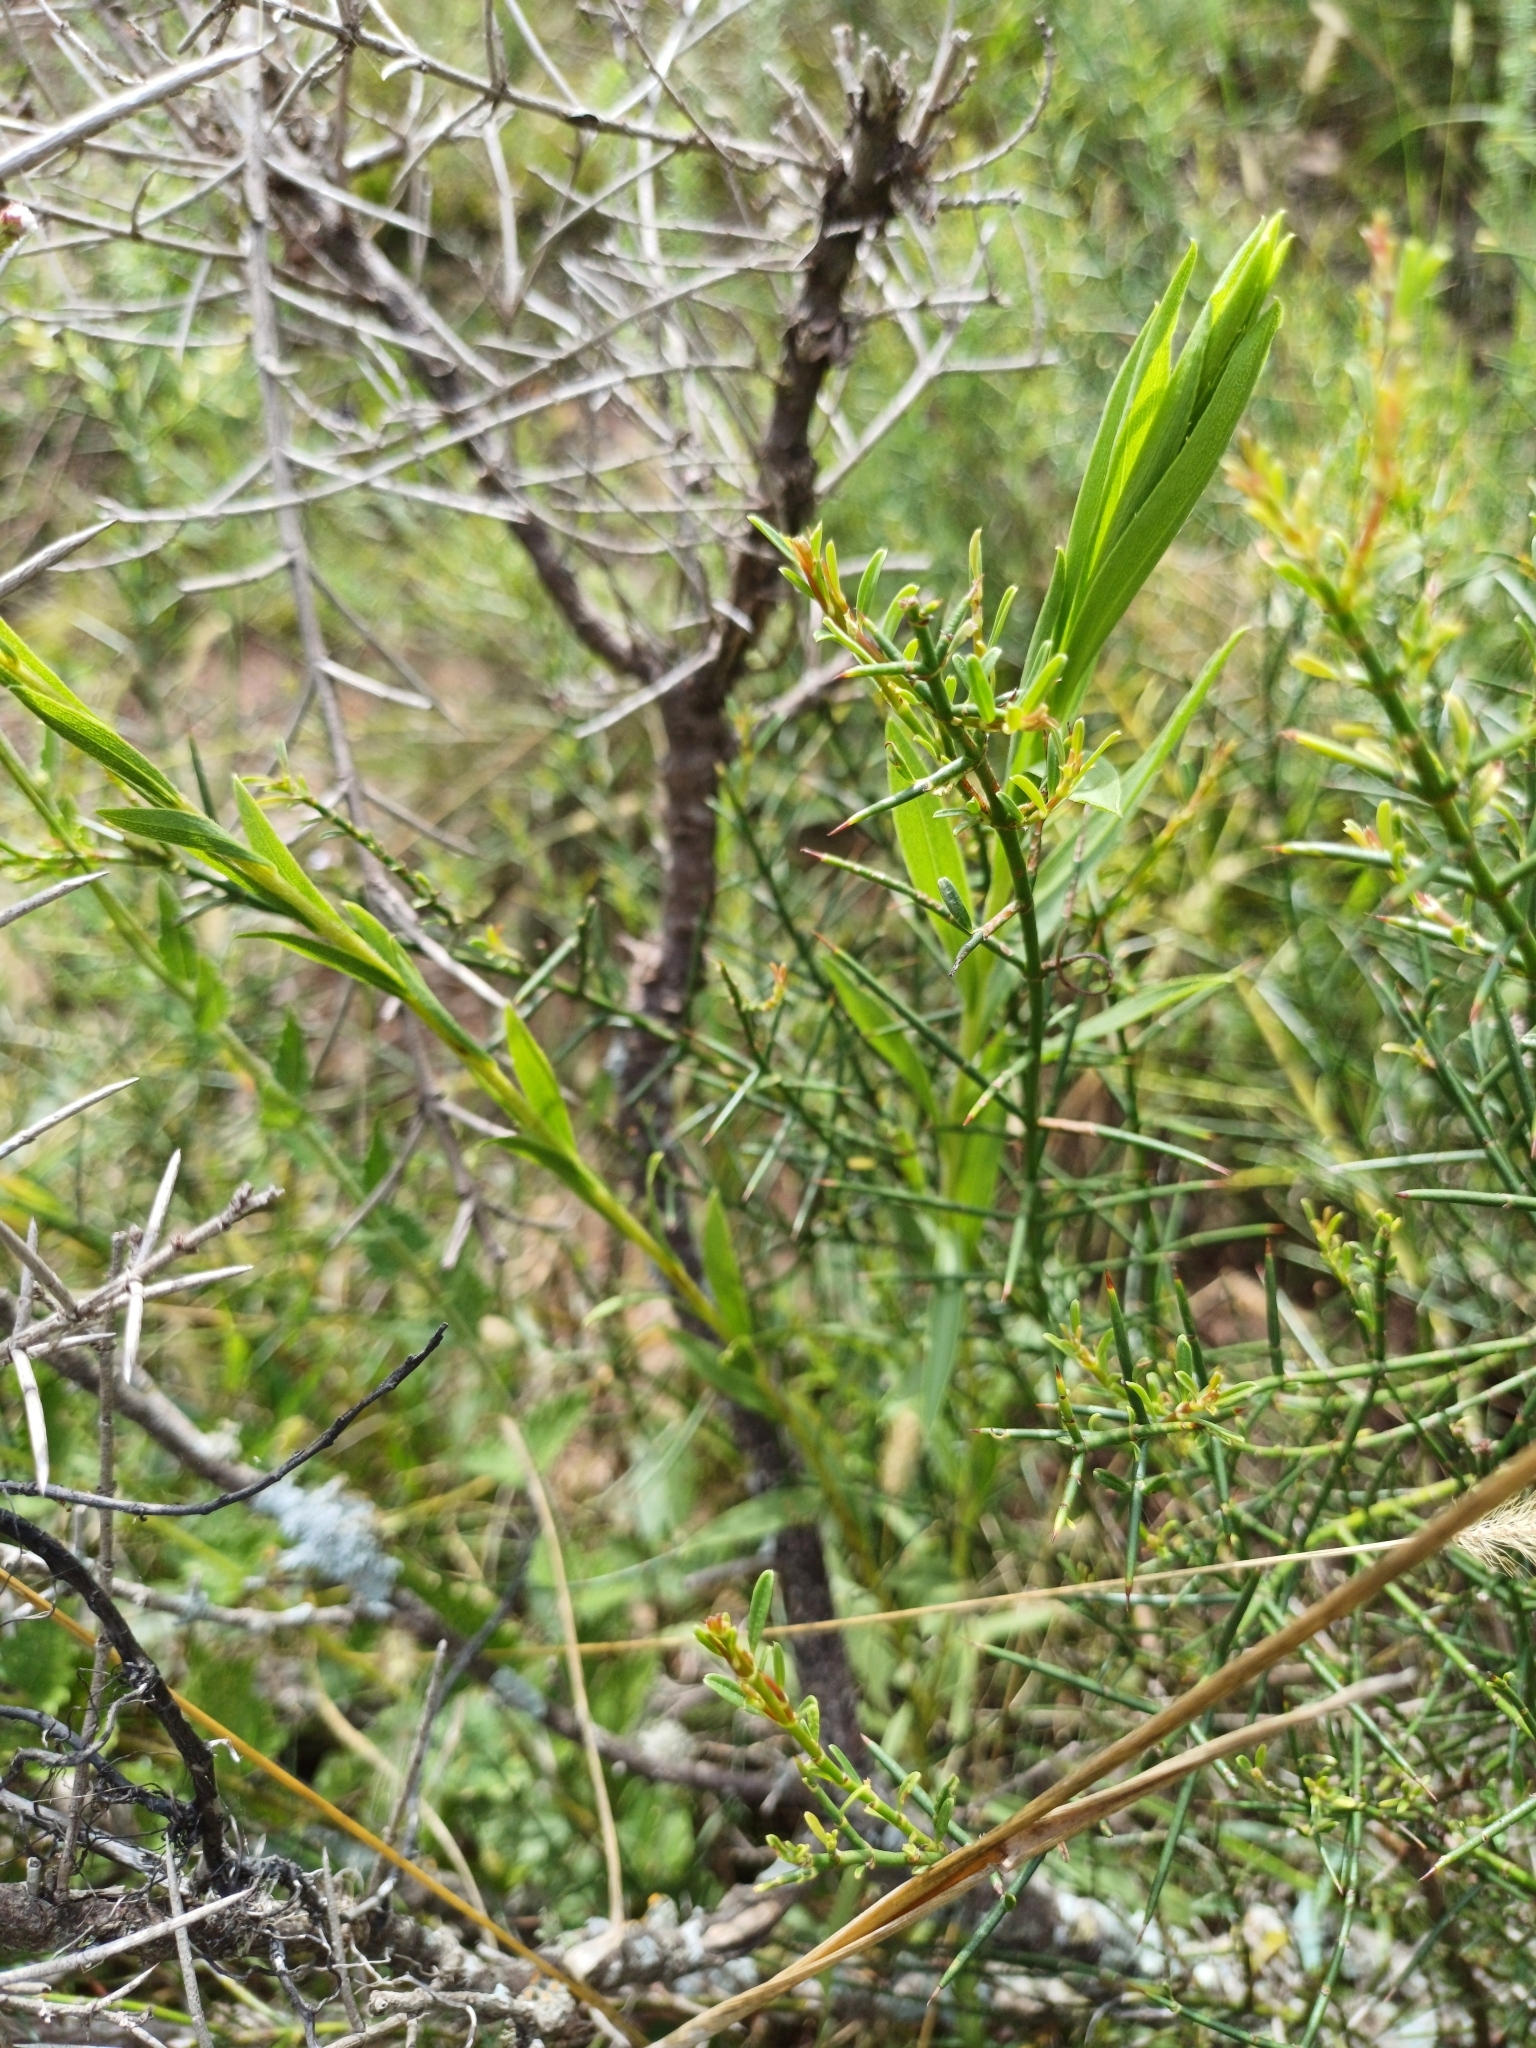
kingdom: Plantae
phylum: Tracheophyta
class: Magnoliopsida
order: Asterales
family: Asteraceae
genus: Solidago
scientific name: Solidago chilensis
